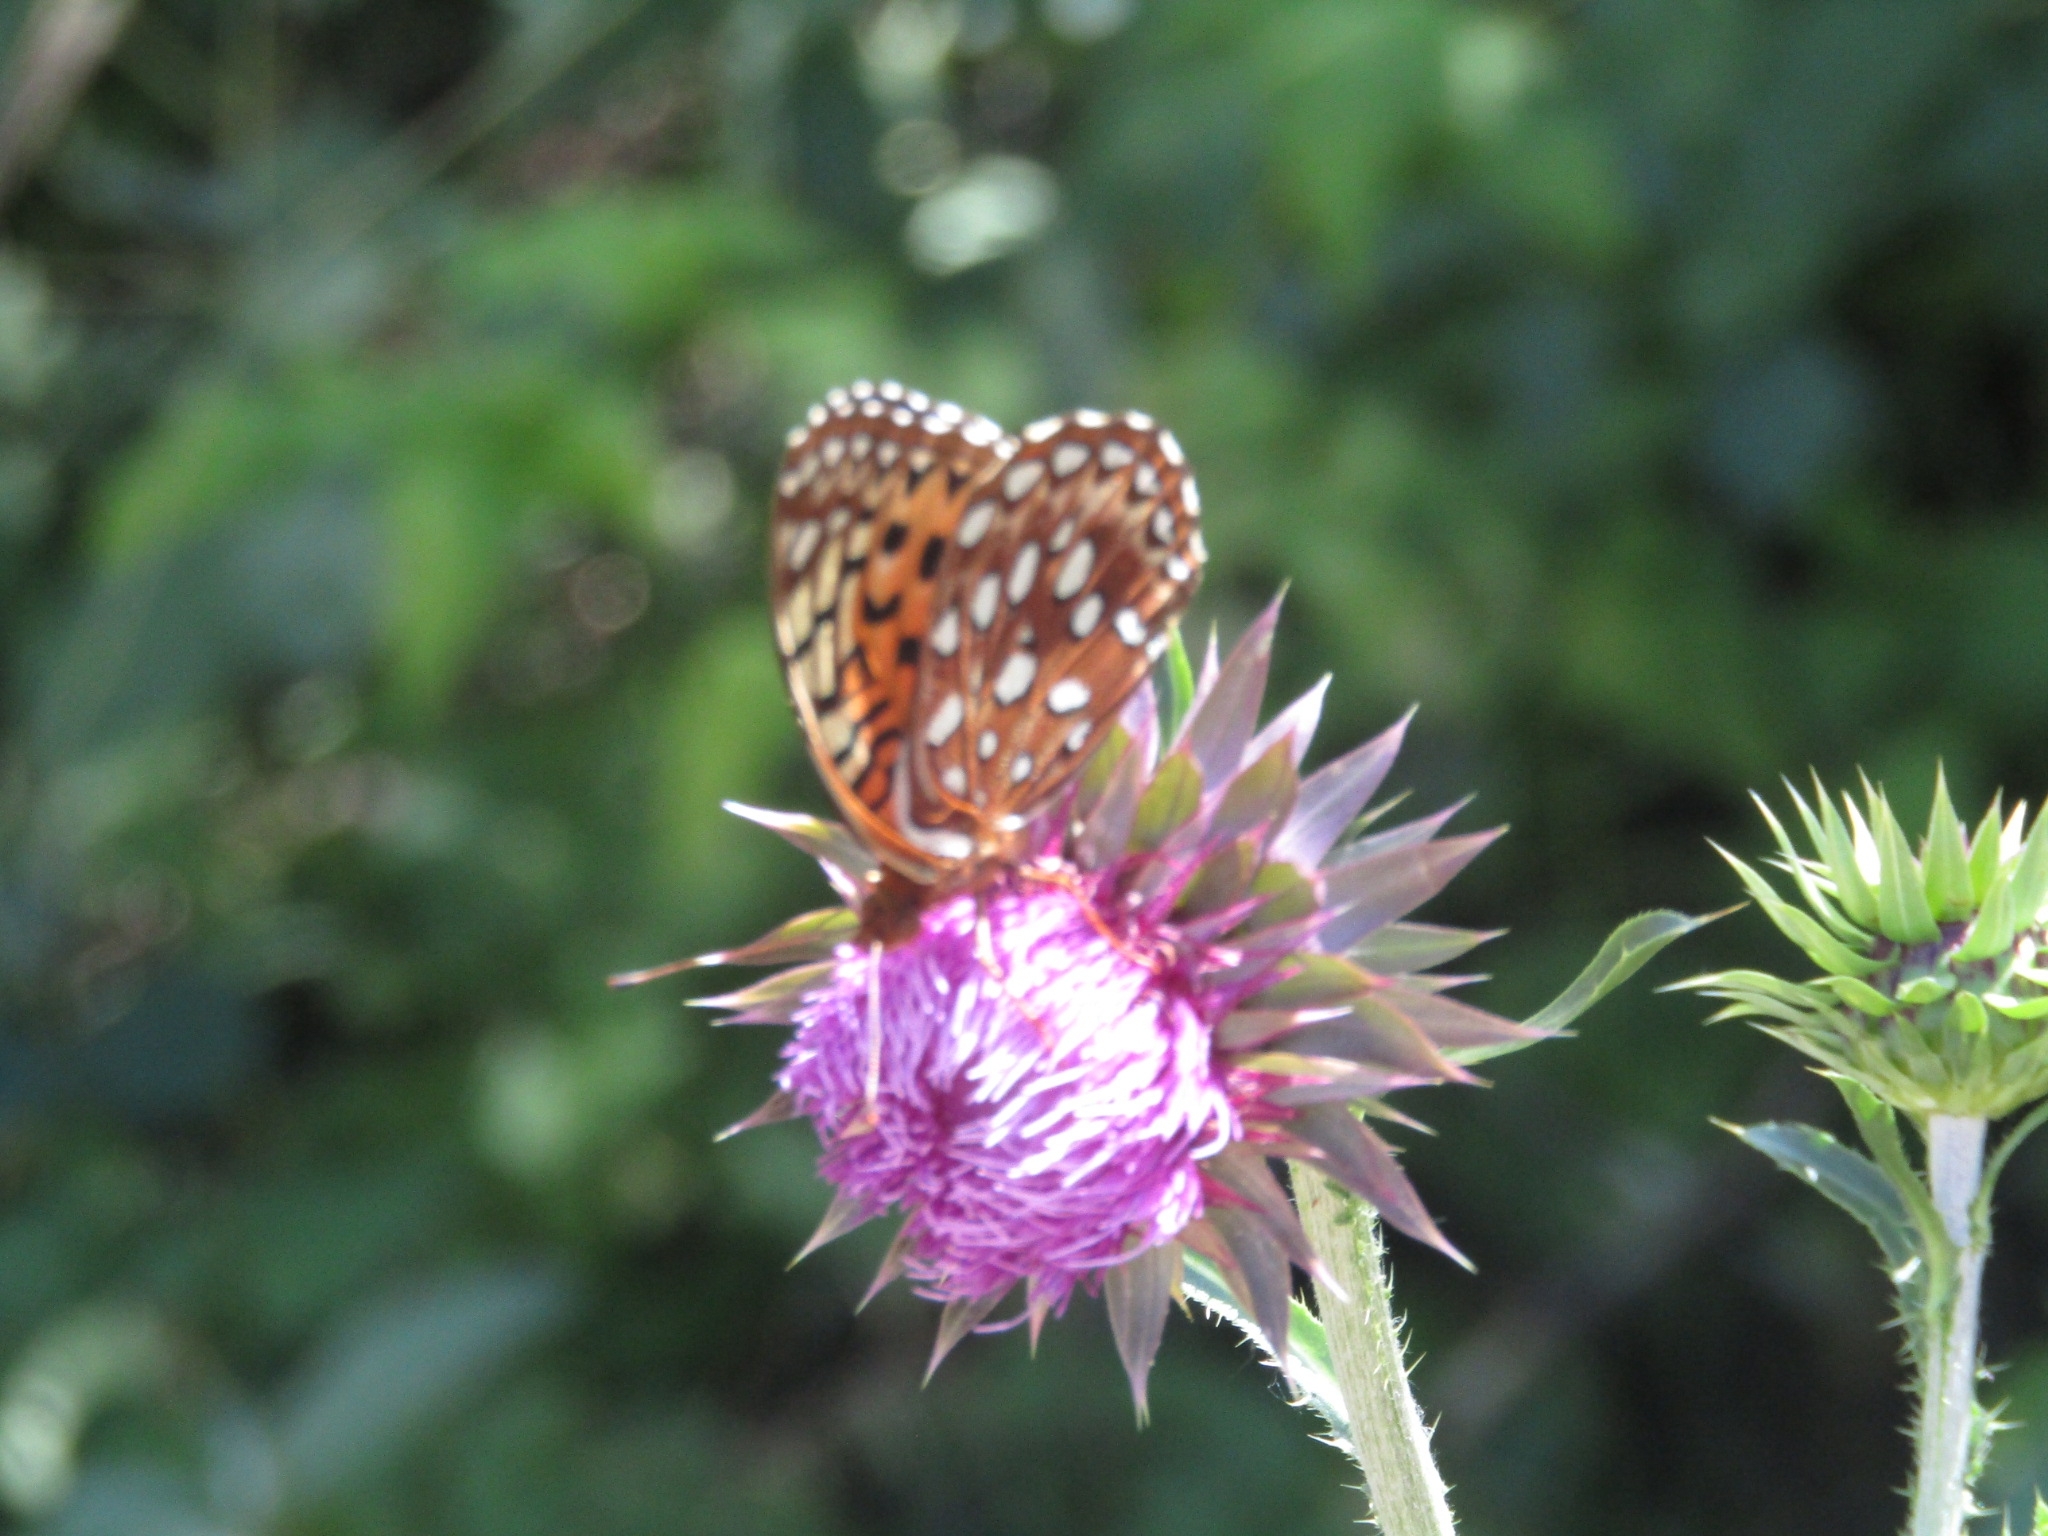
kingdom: Animalia
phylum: Arthropoda
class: Insecta
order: Lepidoptera
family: Nymphalidae
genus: Speyeria
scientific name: Speyeria aphrodite
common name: Aphrodite friitllary
